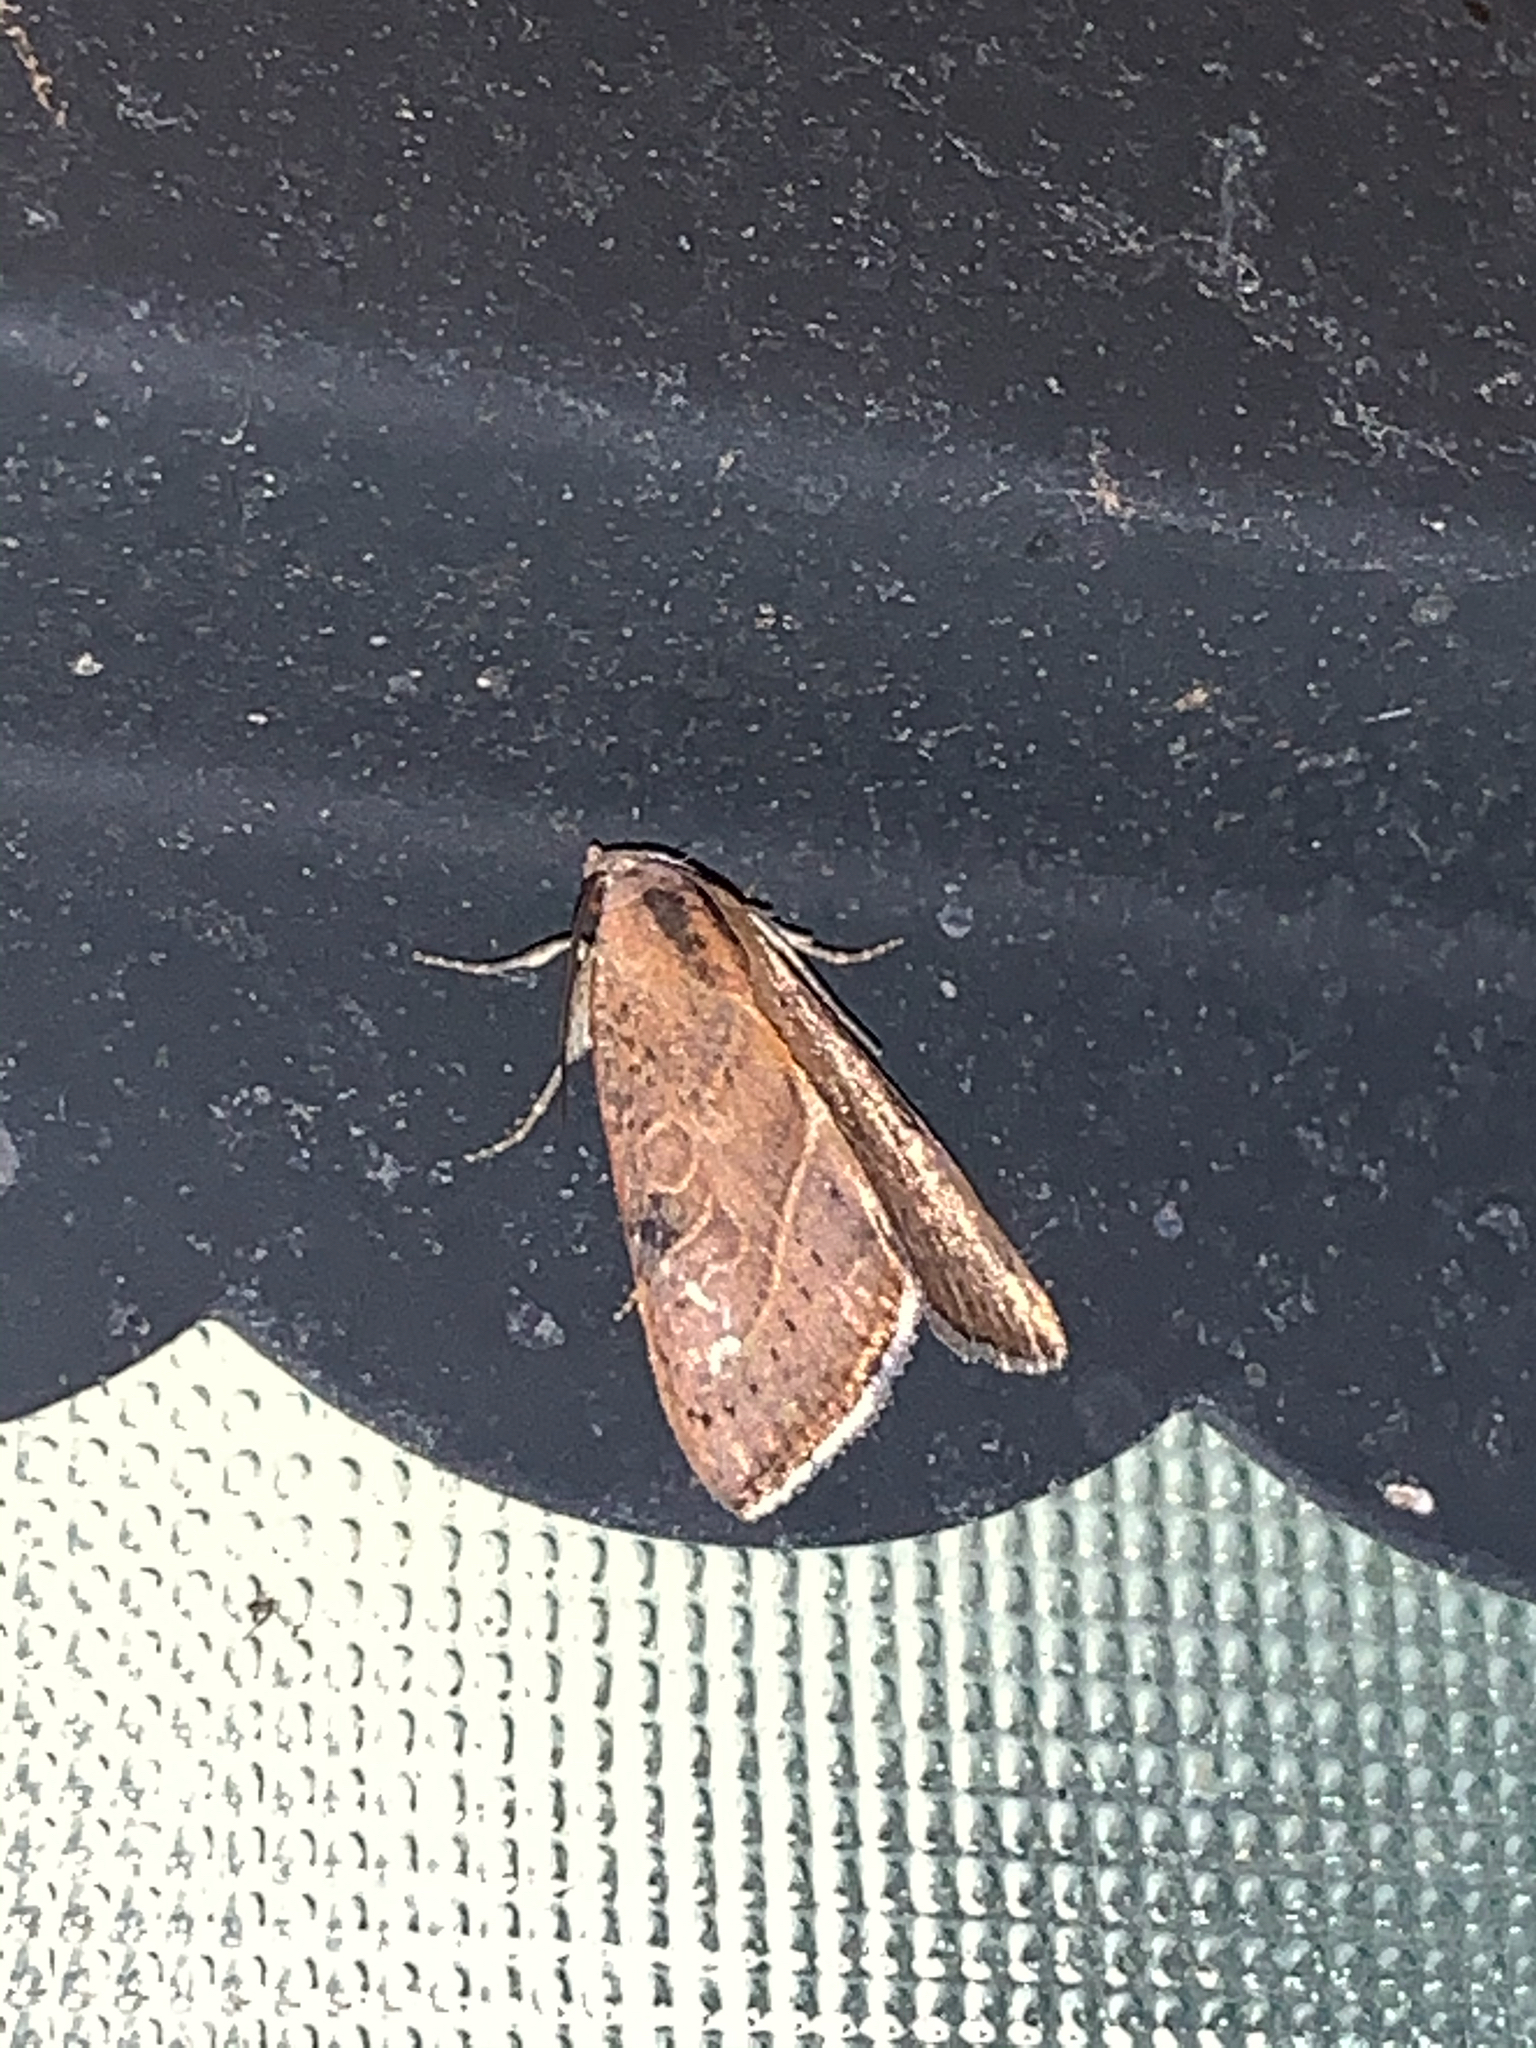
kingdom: Animalia
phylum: Arthropoda
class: Insecta
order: Lepidoptera
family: Noctuidae
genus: Galgula
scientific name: Galgula partita
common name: Wedgeling
